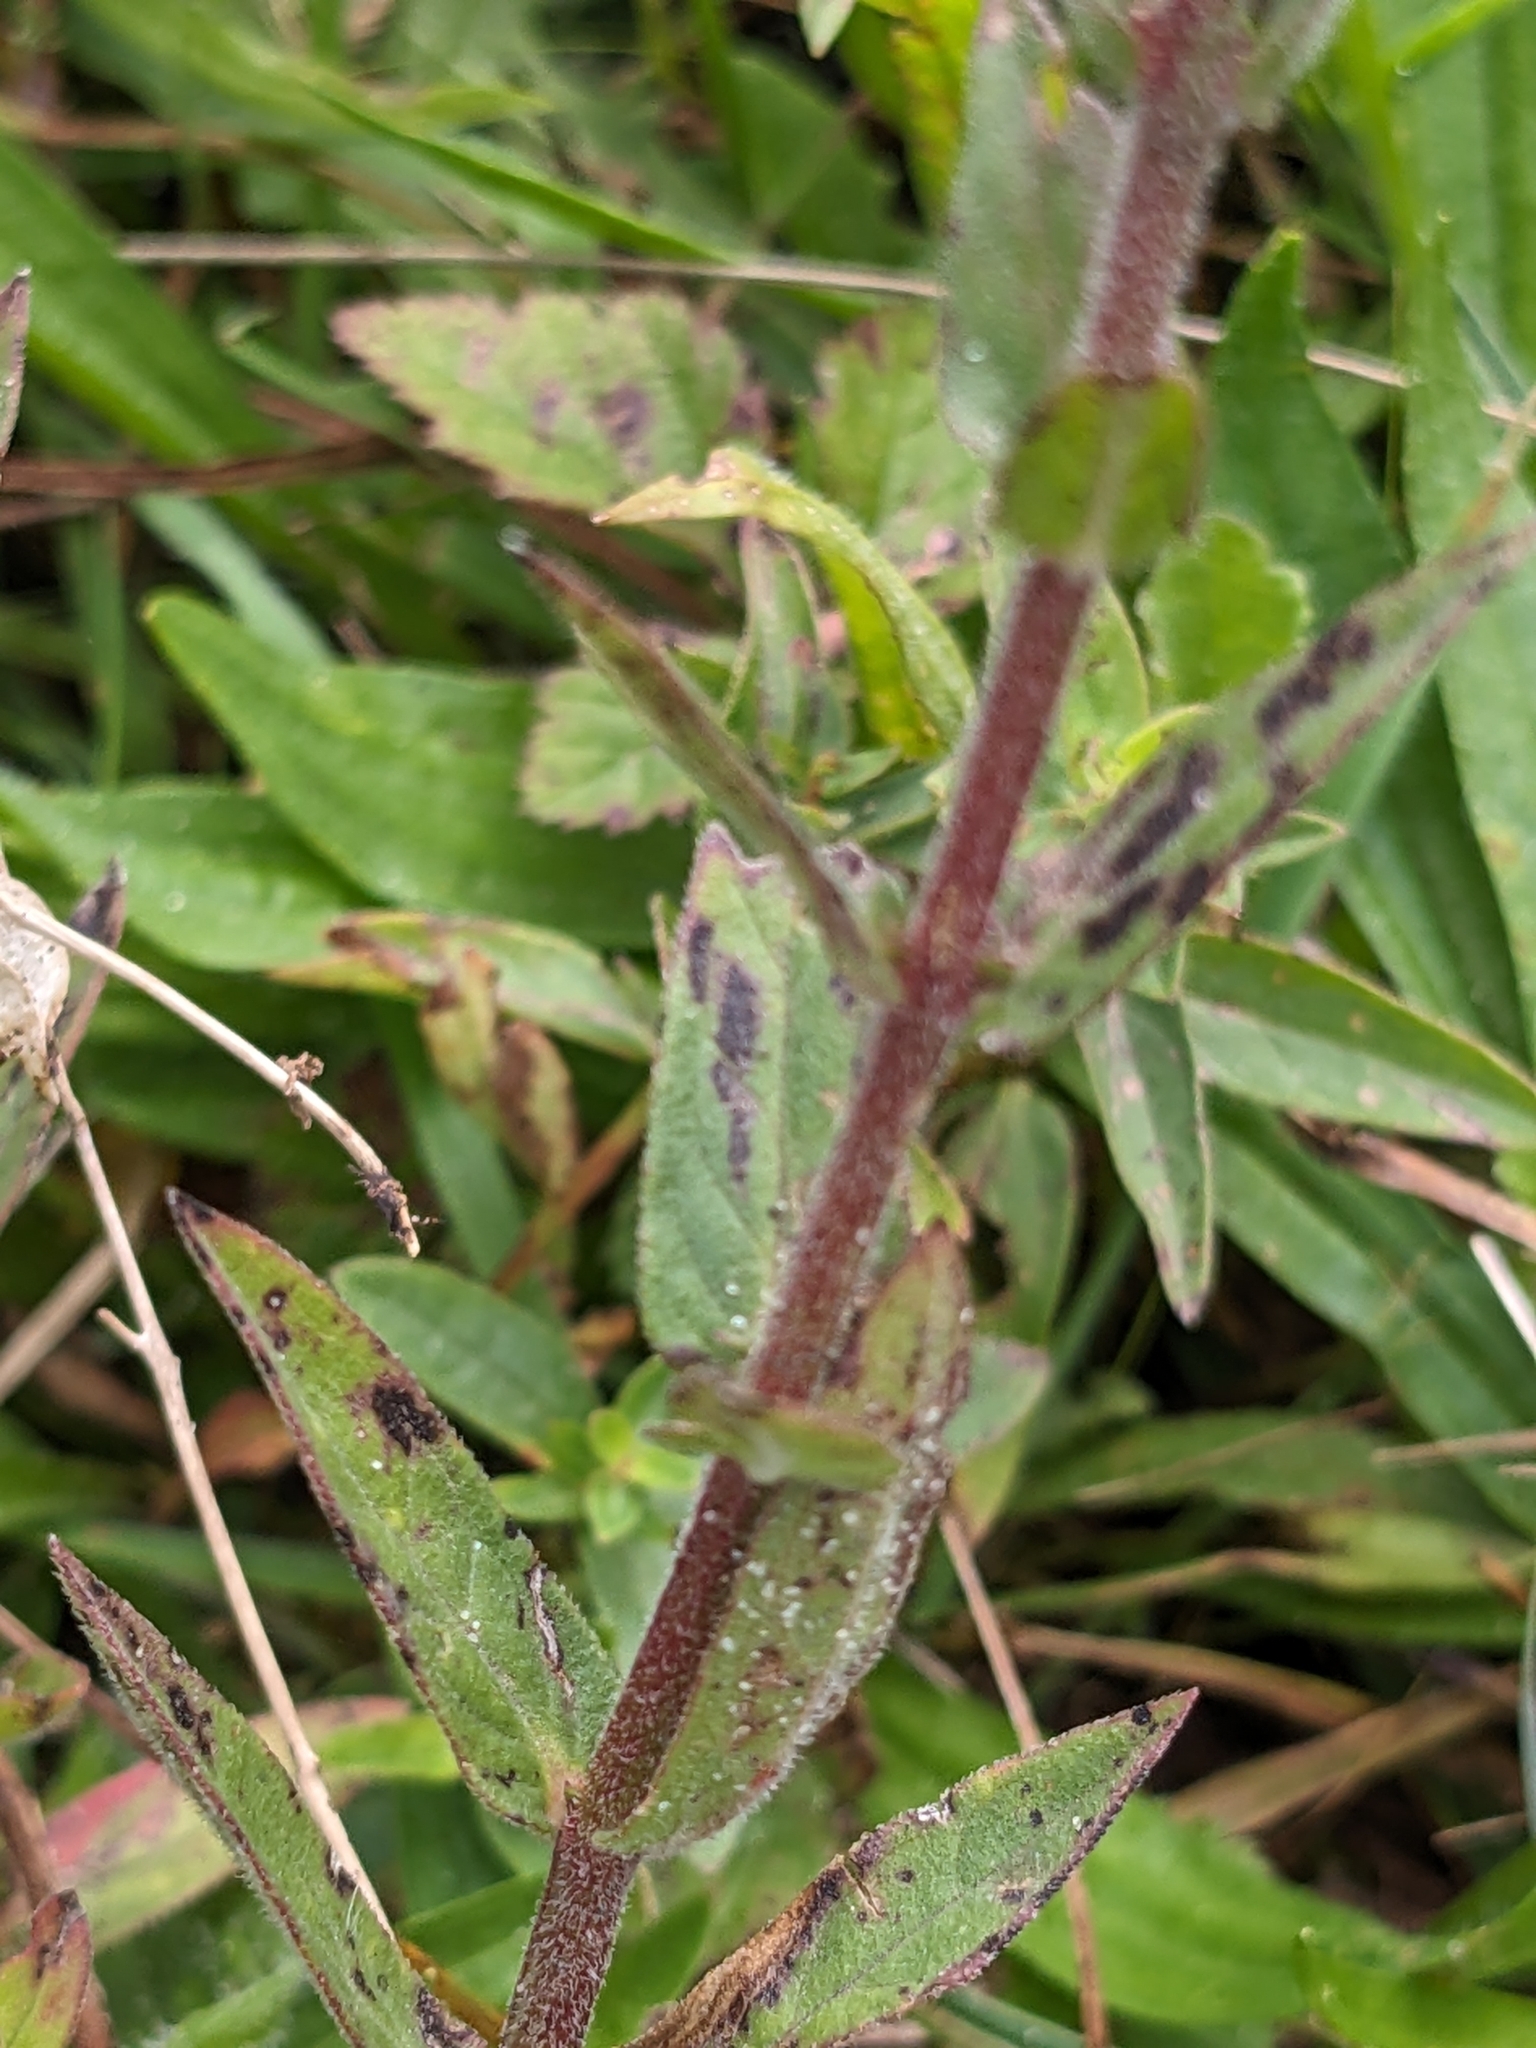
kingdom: Plantae
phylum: Tracheophyta
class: Magnoliopsida
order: Myrtales
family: Lythraceae
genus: Lythrum
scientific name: Lythrum salicaria
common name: Purple loosestrife
